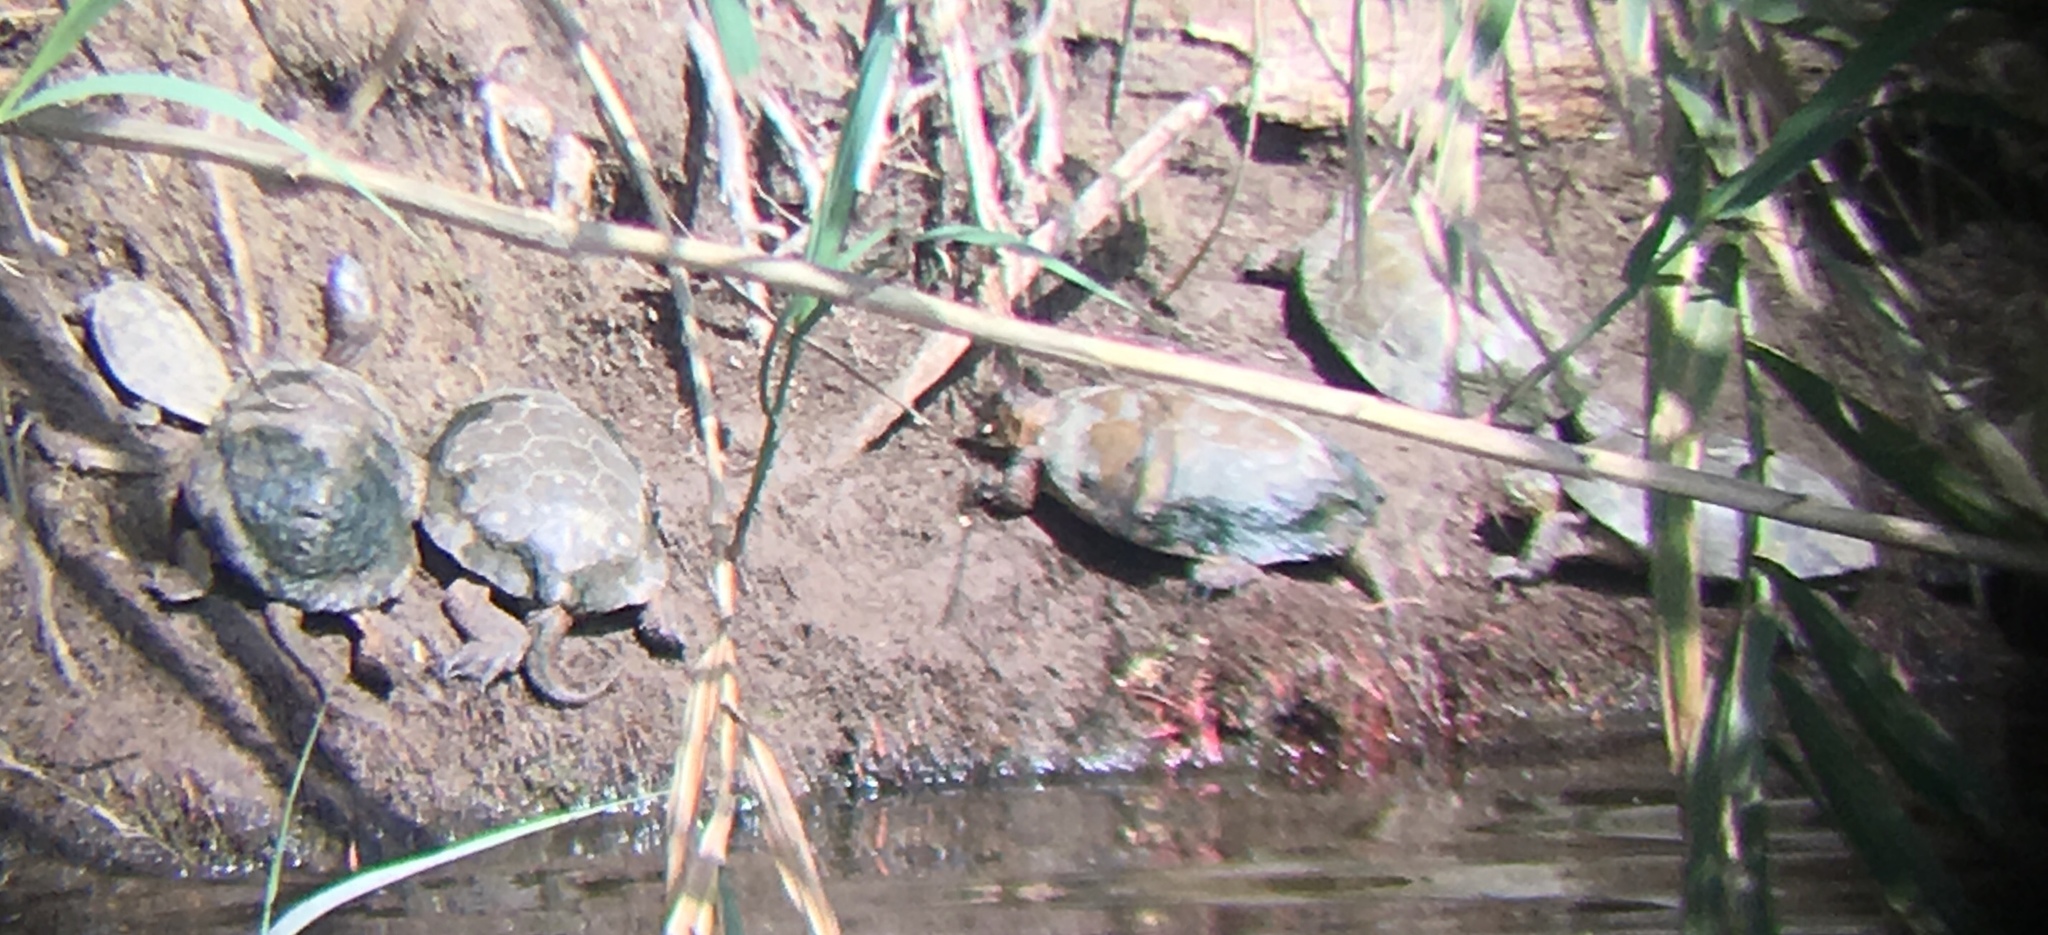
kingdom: Animalia
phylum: Chordata
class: Testudines
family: Emydidae
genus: Actinemys
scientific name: Actinemys marmorata
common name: Western pond turtle
